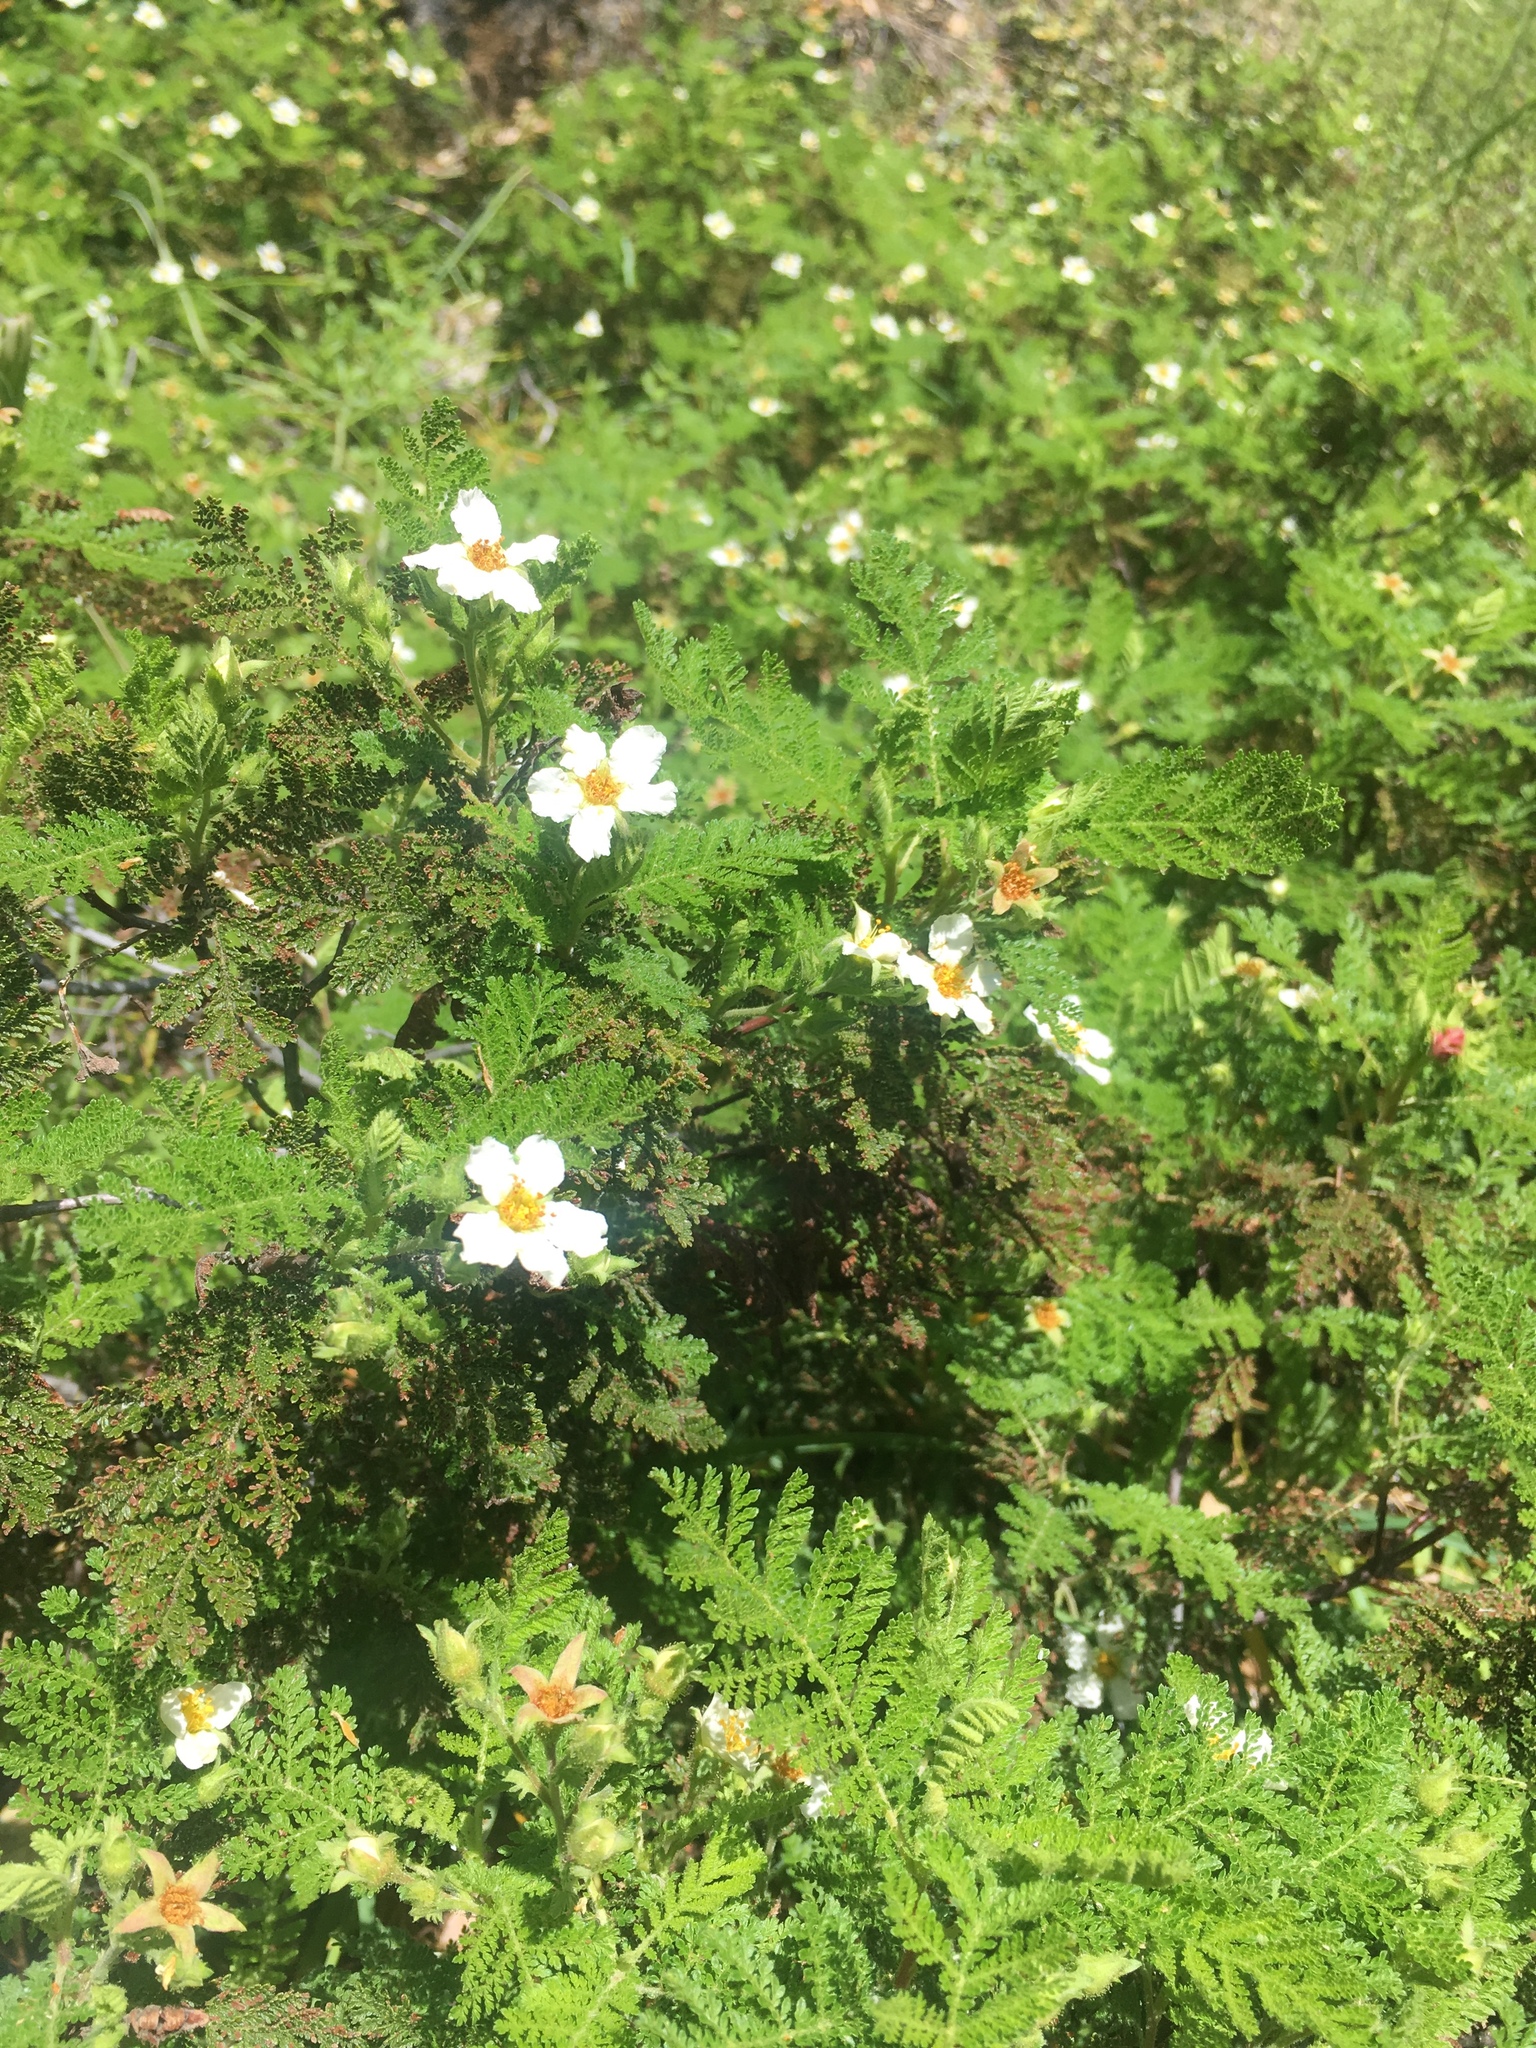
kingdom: Plantae
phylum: Tracheophyta
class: Magnoliopsida
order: Rosales
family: Rosaceae
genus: Chamaebatia
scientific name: Chamaebatia foliolosa
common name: Mountain misery
